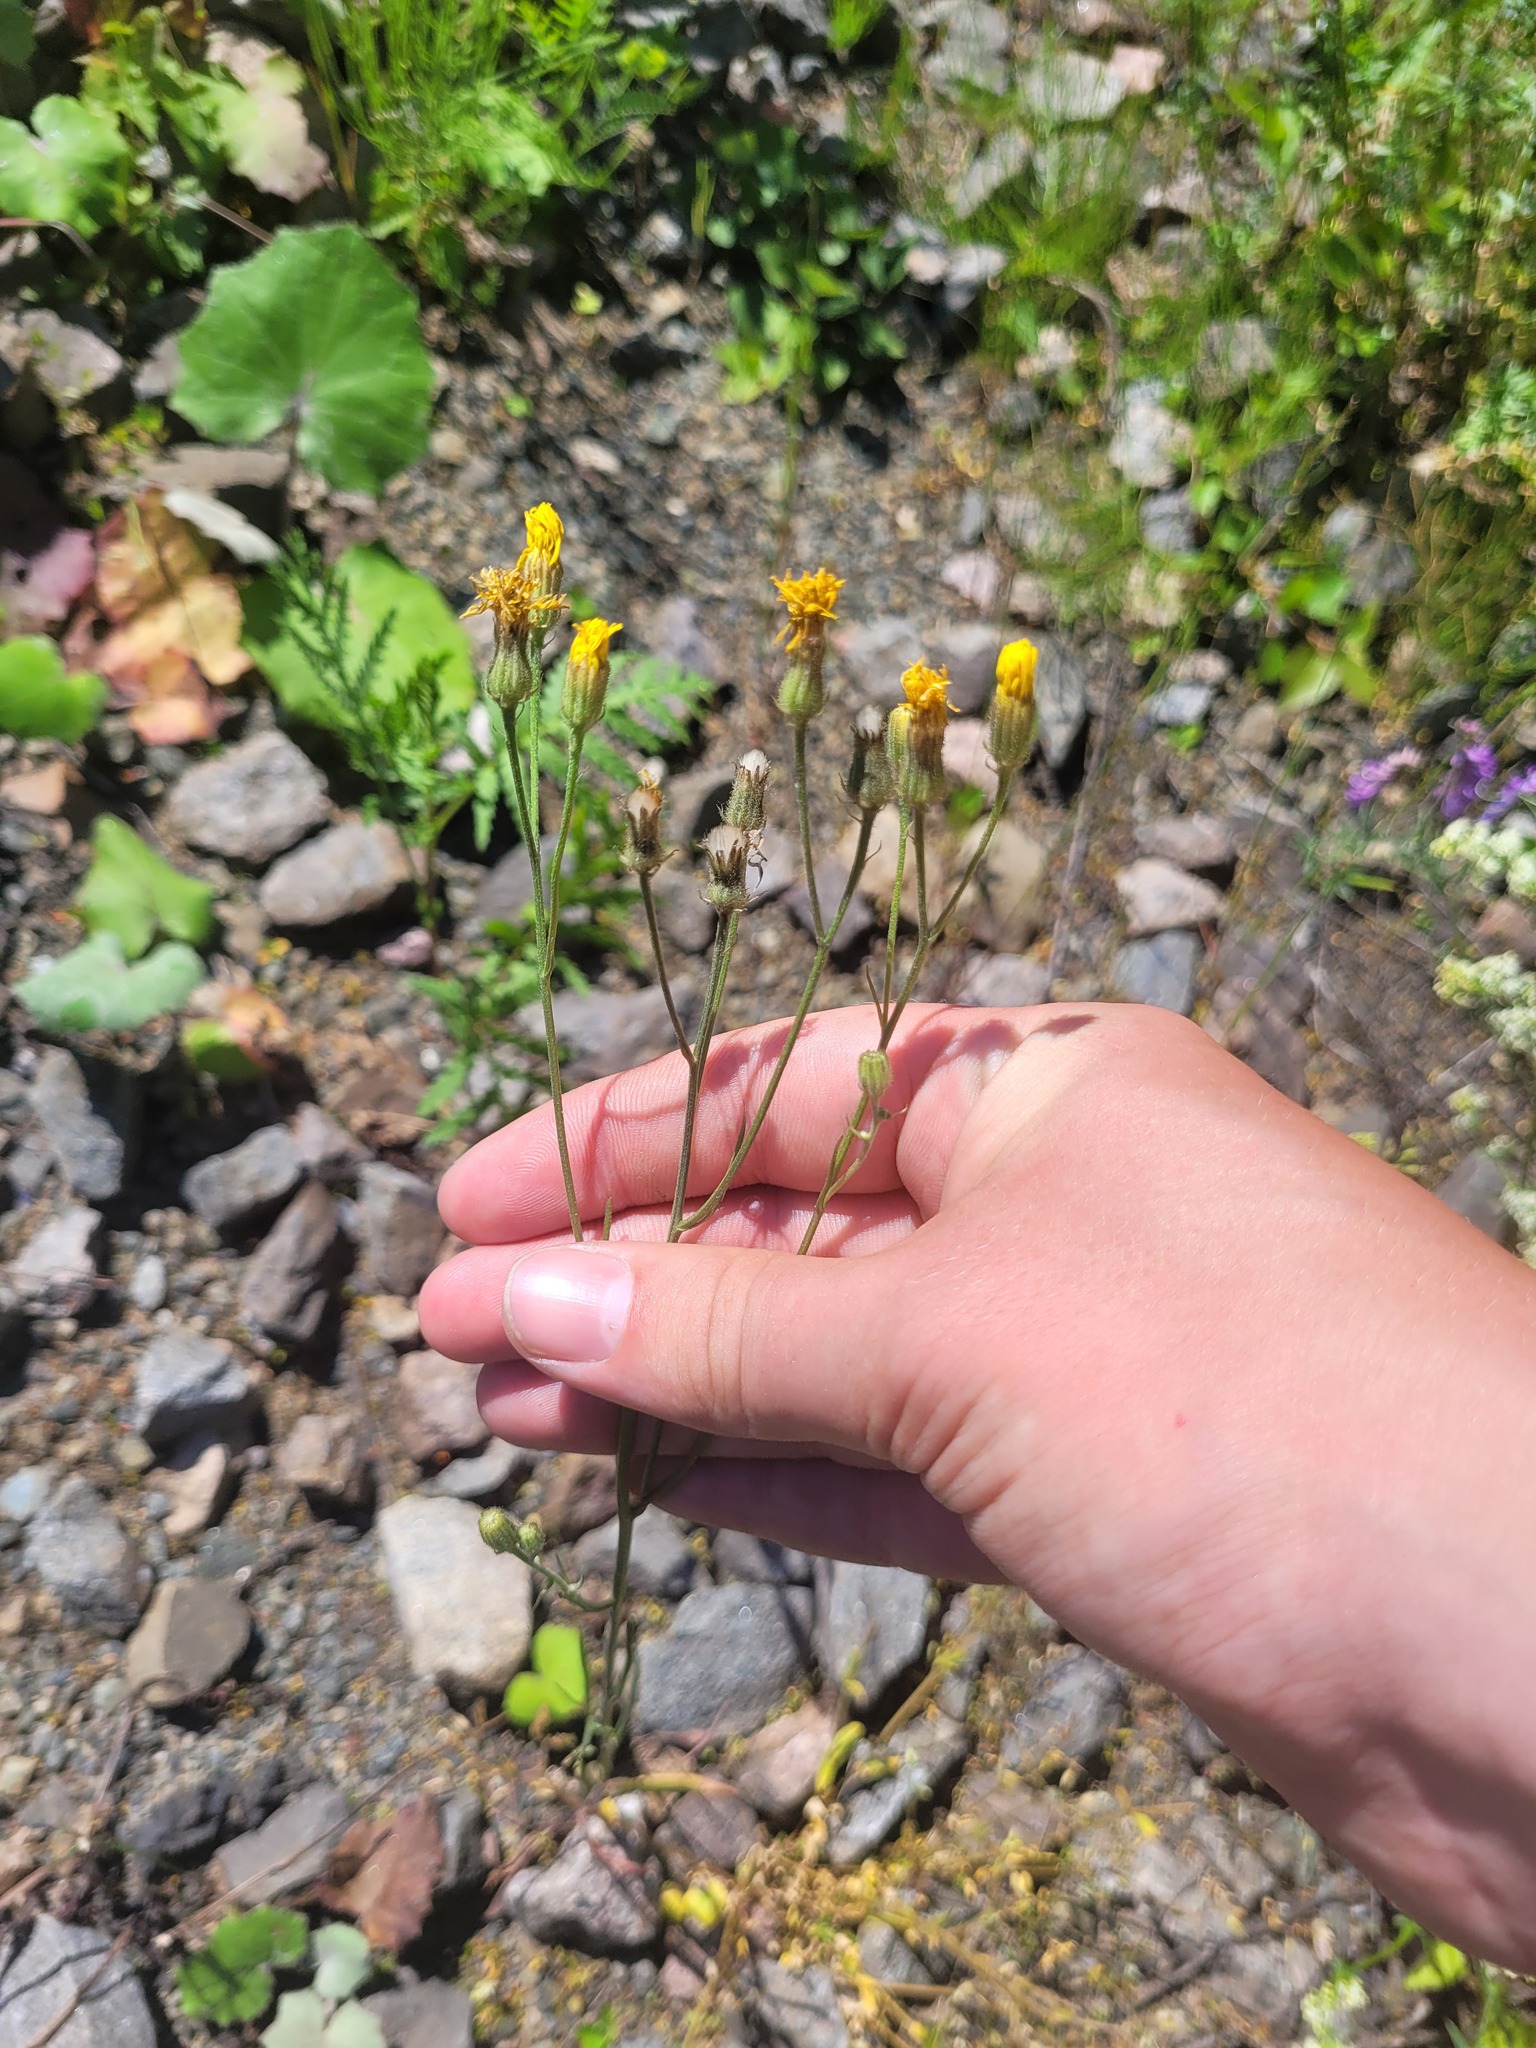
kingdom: Plantae
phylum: Tracheophyta
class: Magnoliopsida
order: Asterales
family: Asteraceae
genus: Crepis
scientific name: Crepis tectorum
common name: Narrow-leaved hawk's-beard
